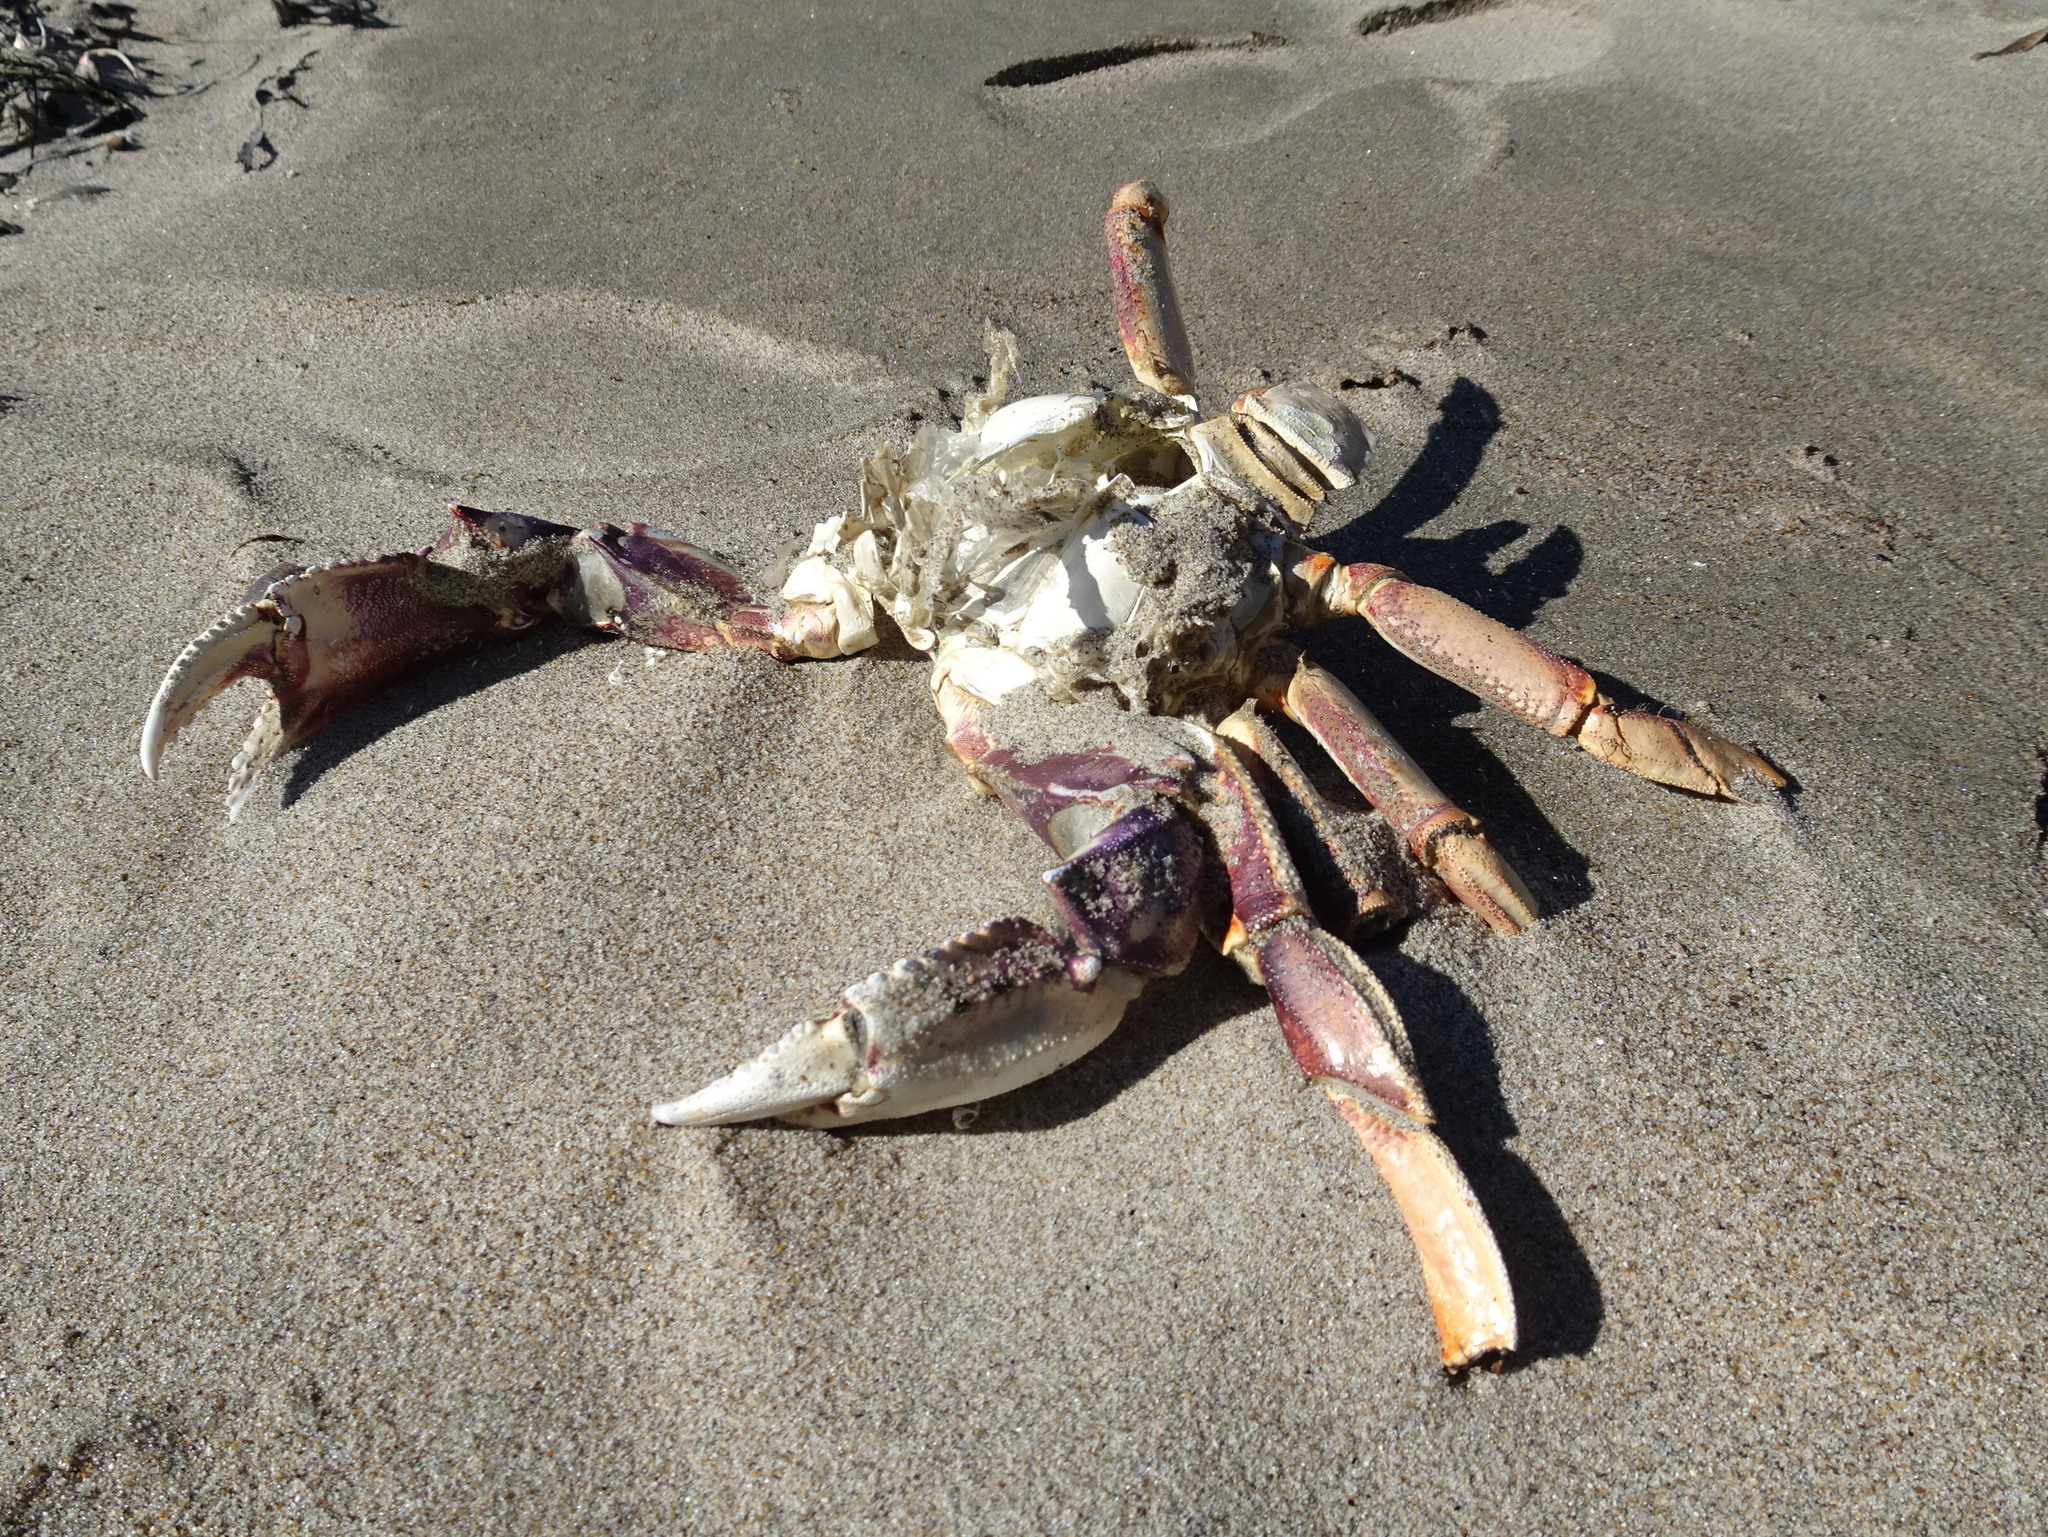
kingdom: Animalia
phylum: Arthropoda
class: Malacostraca
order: Decapoda
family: Cancridae
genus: Metacarcinus
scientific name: Metacarcinus magister
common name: Californian crab
